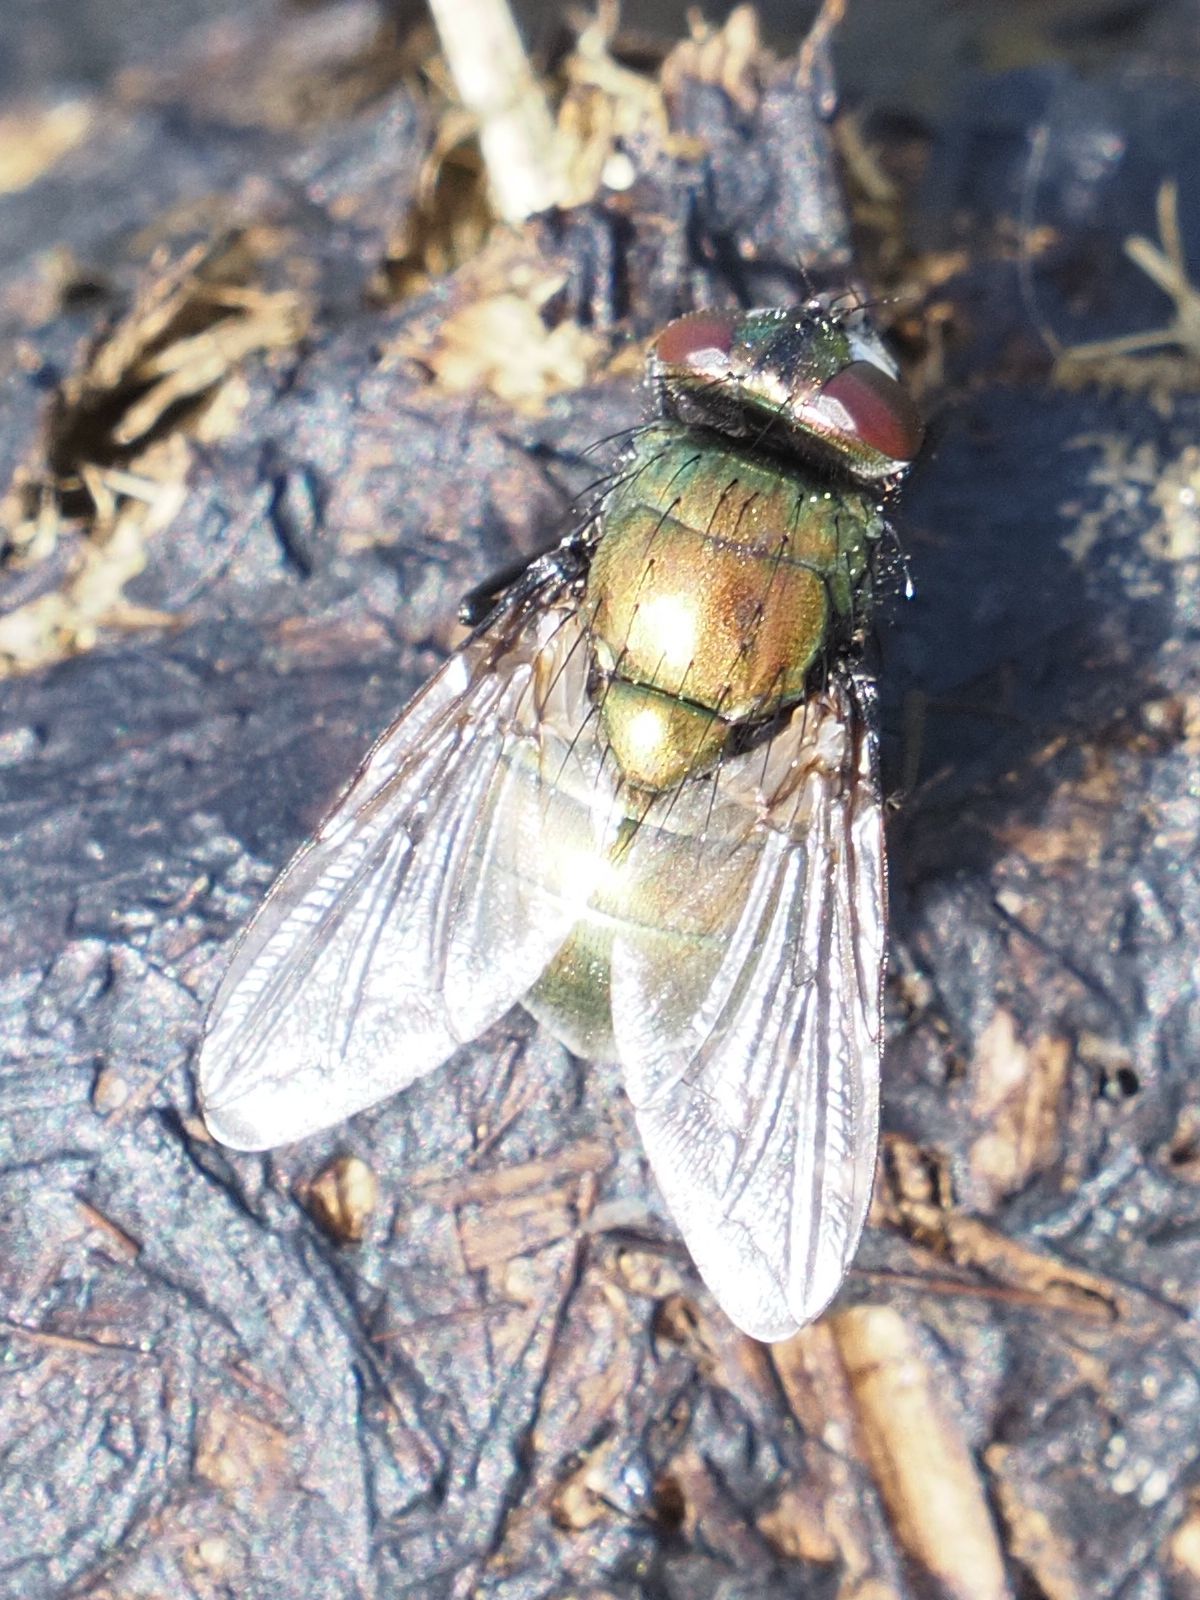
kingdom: Animalia
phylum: Arthropoda
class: Insecta
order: Diptera
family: Muscidae
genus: Neomyia
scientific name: Neomyia cornicina
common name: House fly
